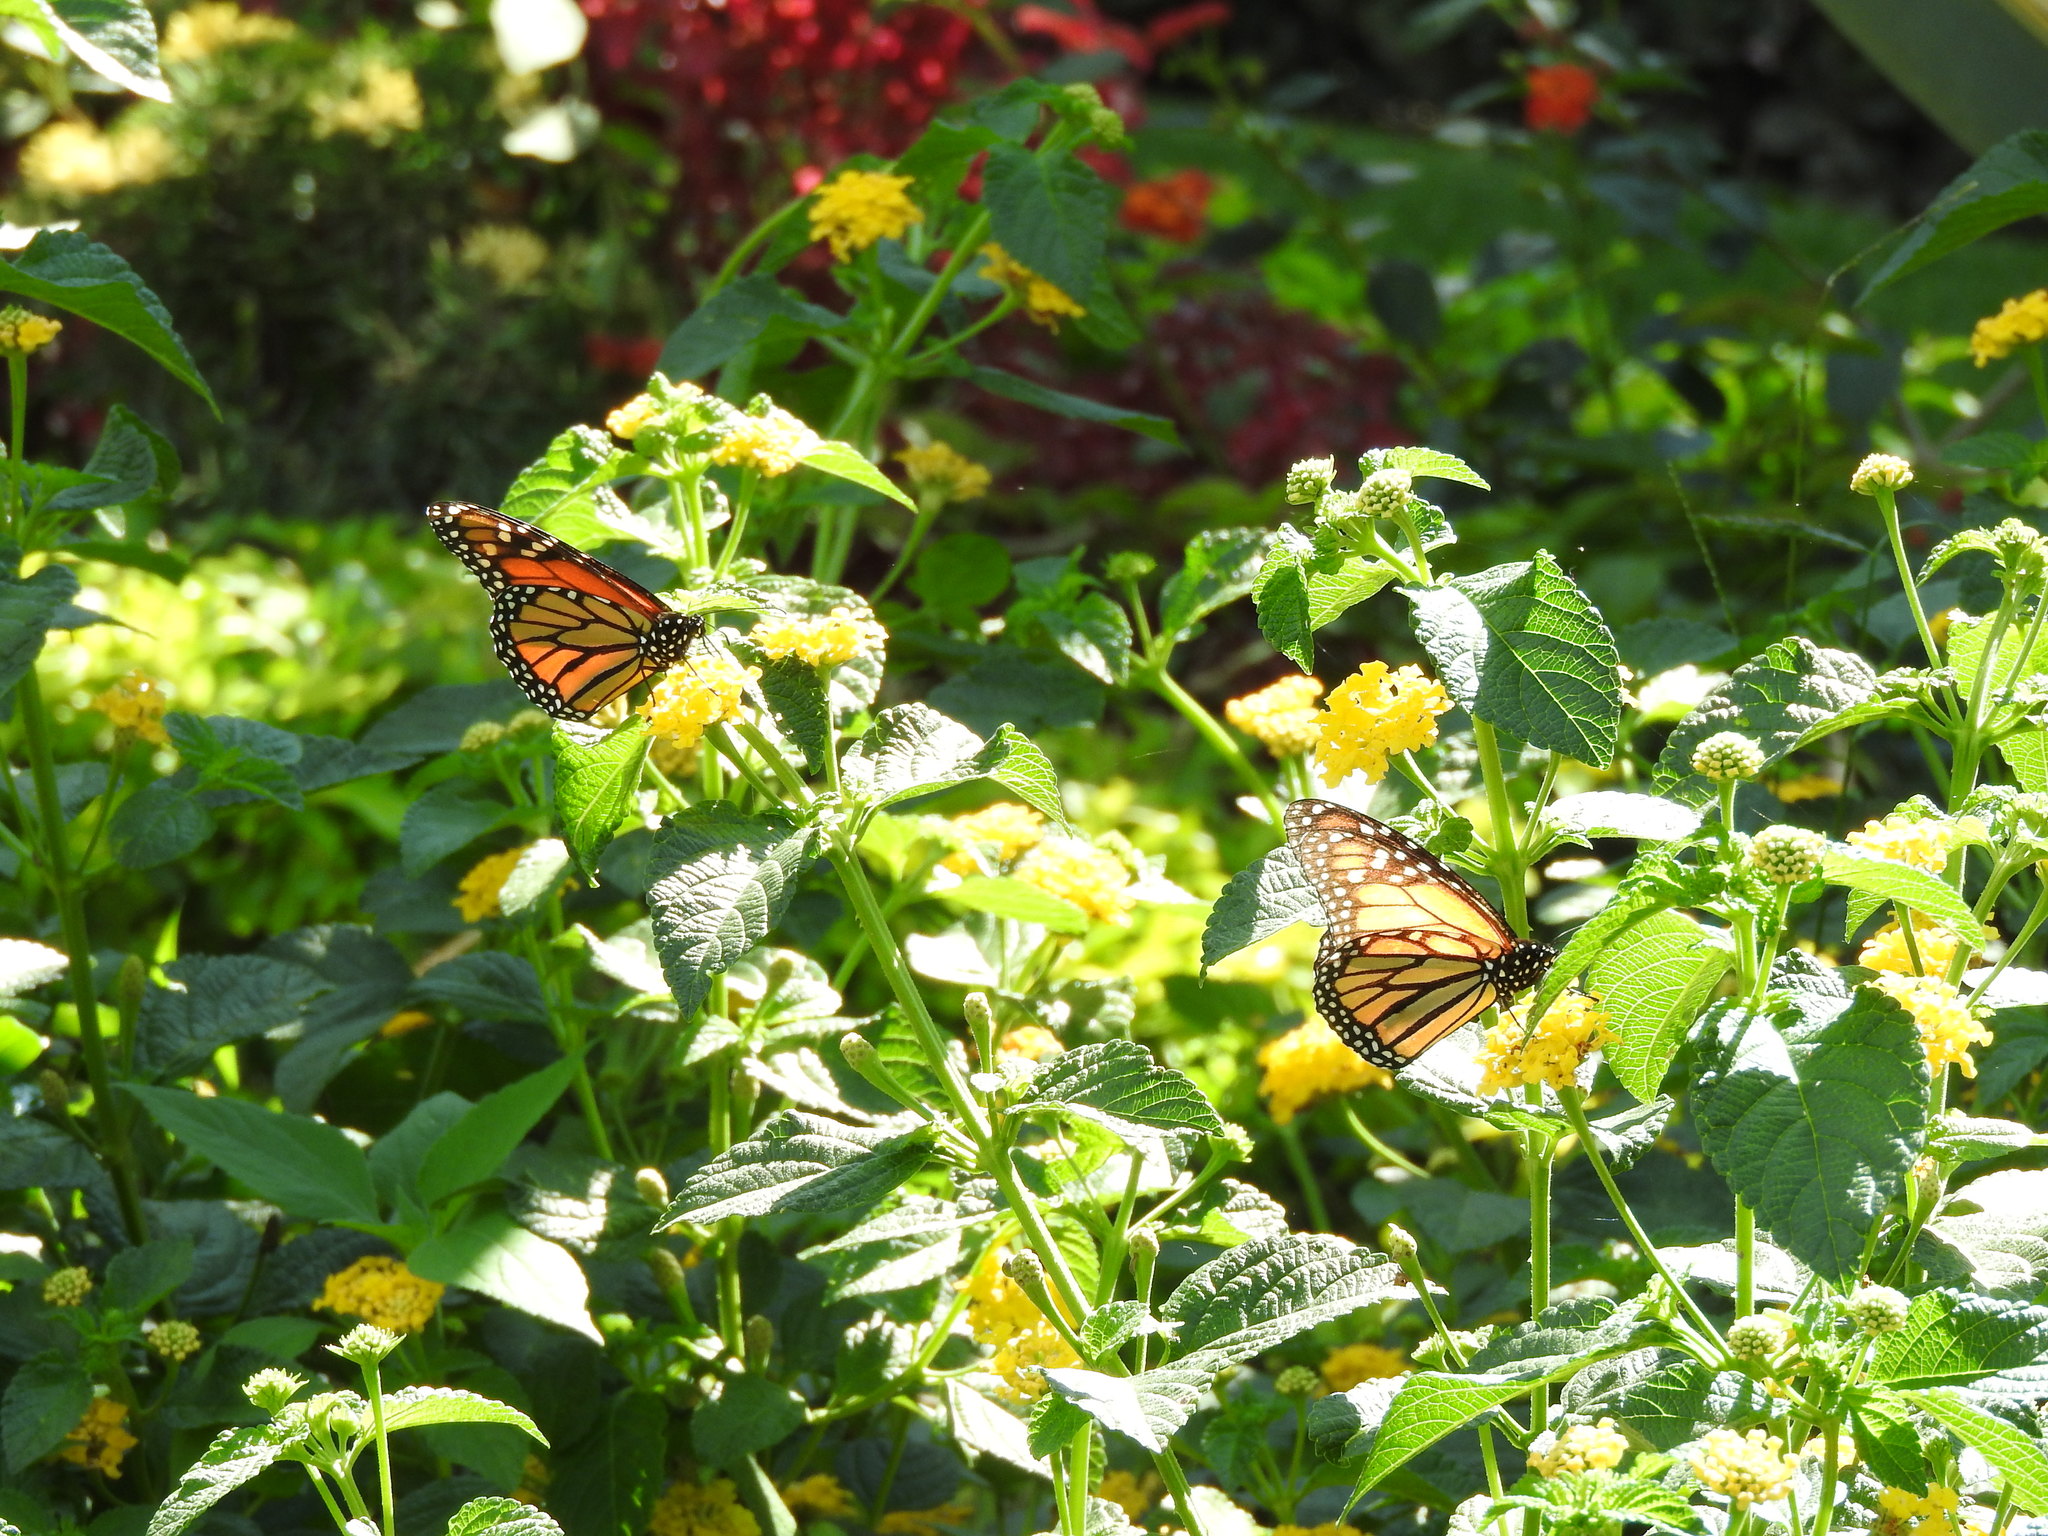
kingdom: Animalia
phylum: Arthropoda
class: Insecta
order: Lepidoptera
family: Nymphalidae
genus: Danaus
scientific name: Danaus plexippus
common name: Monarch
